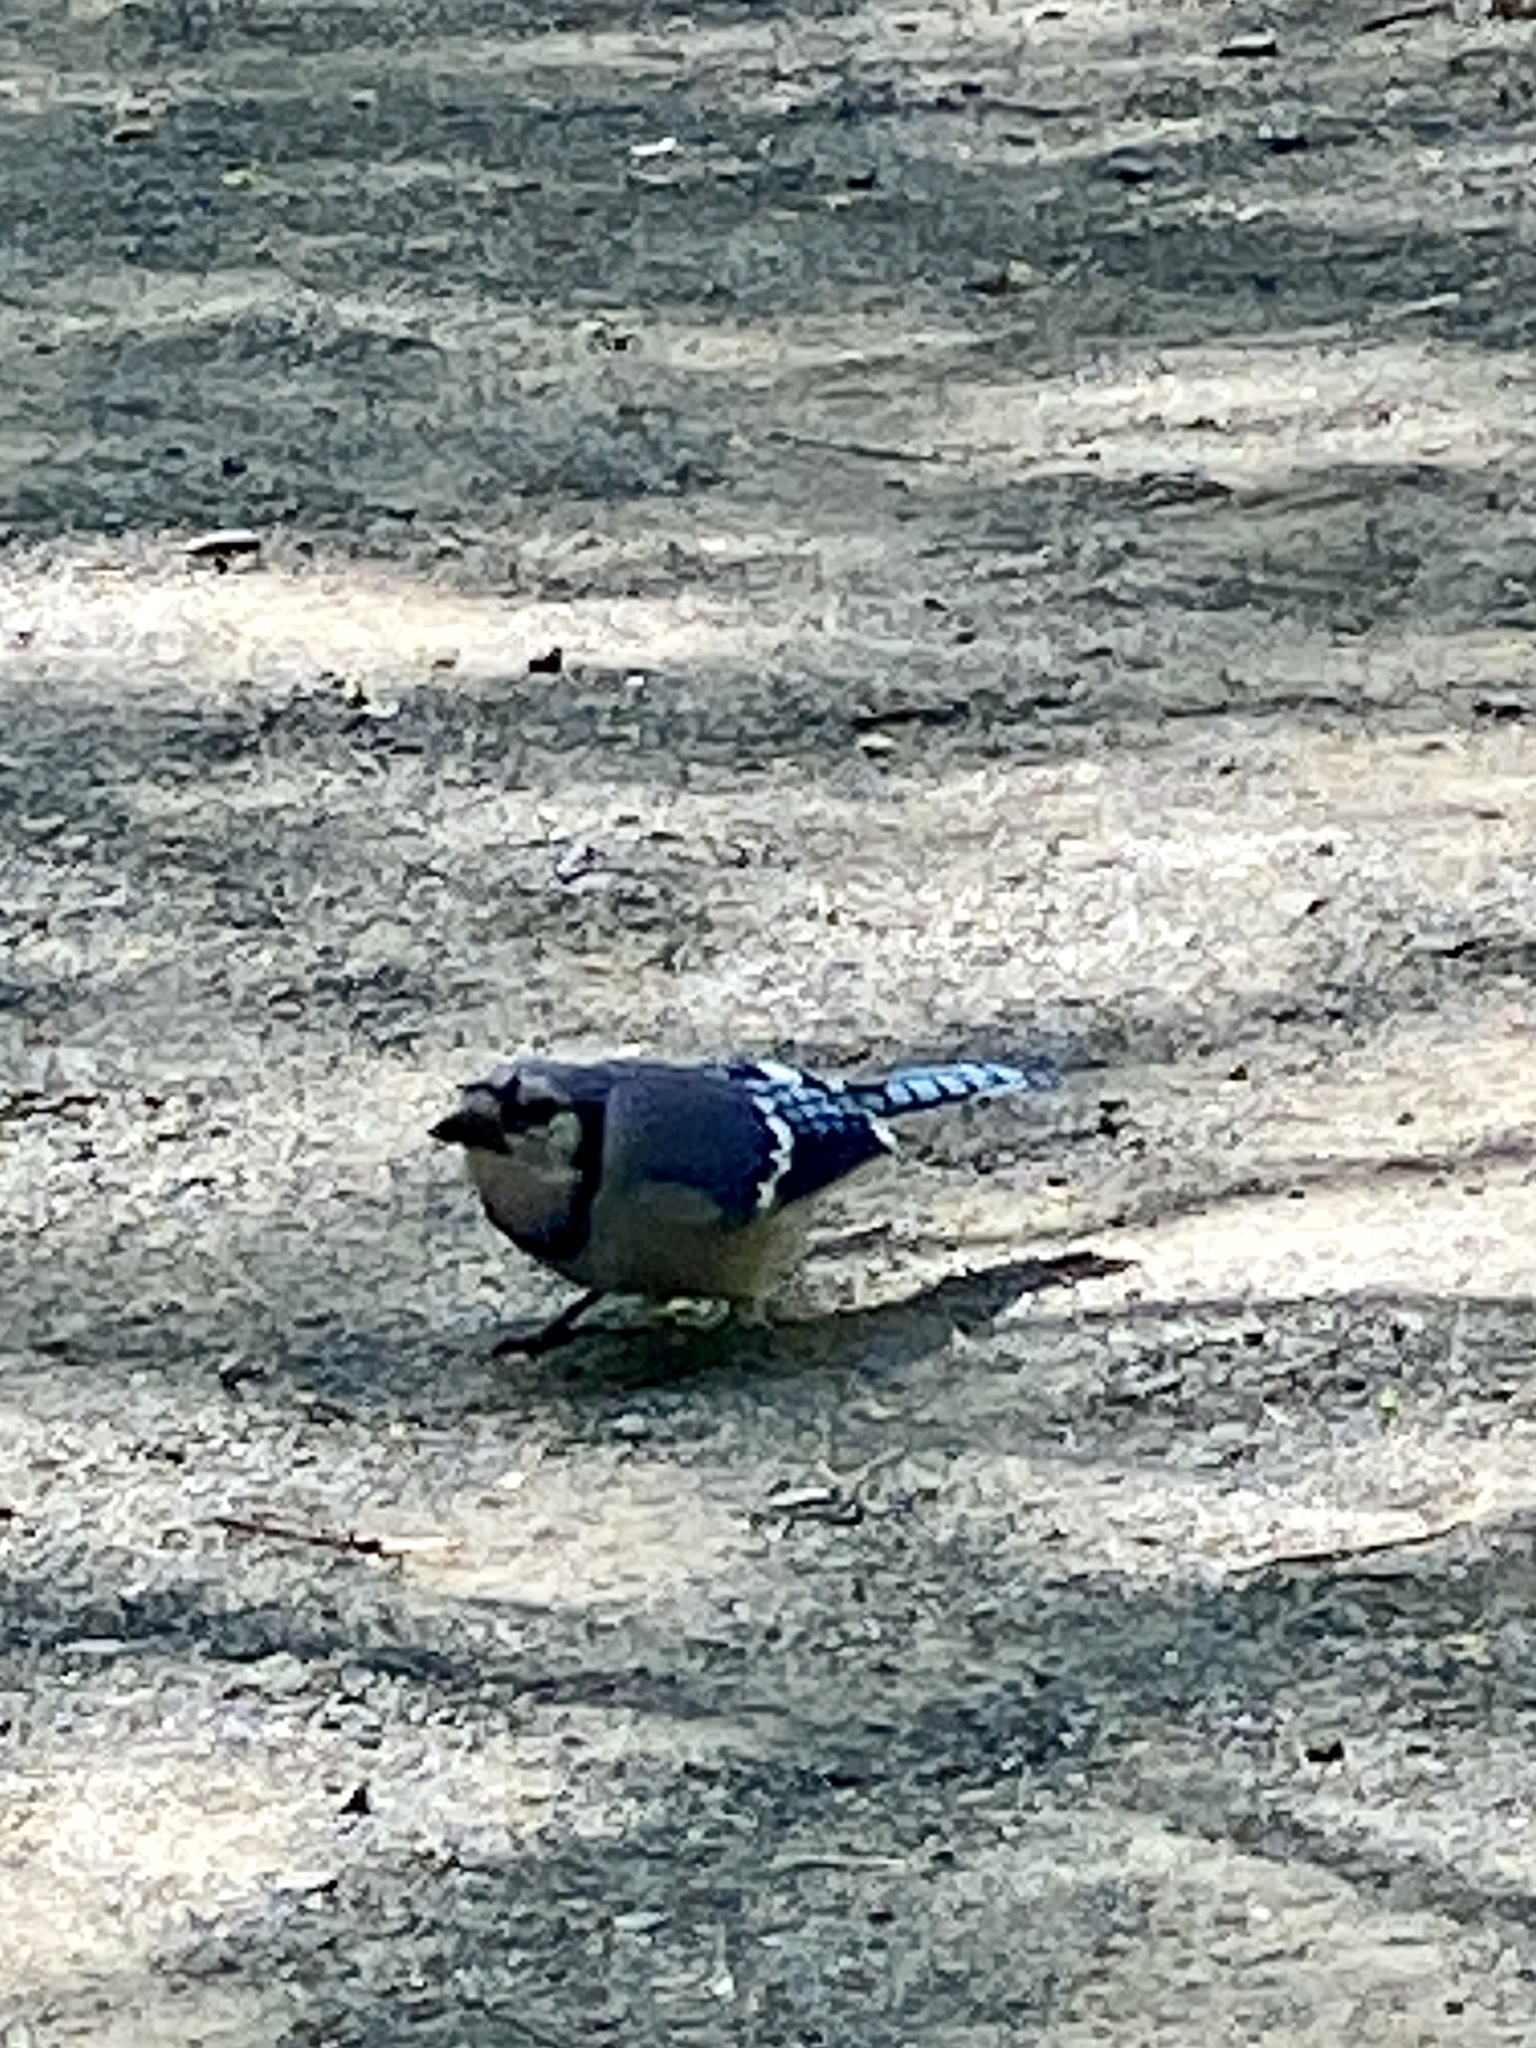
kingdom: Animalia
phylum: Chordata
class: Aves
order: Passeriformes
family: Corvidae
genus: Cyanocitta
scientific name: Cyanocitta cristata
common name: Blue jay
